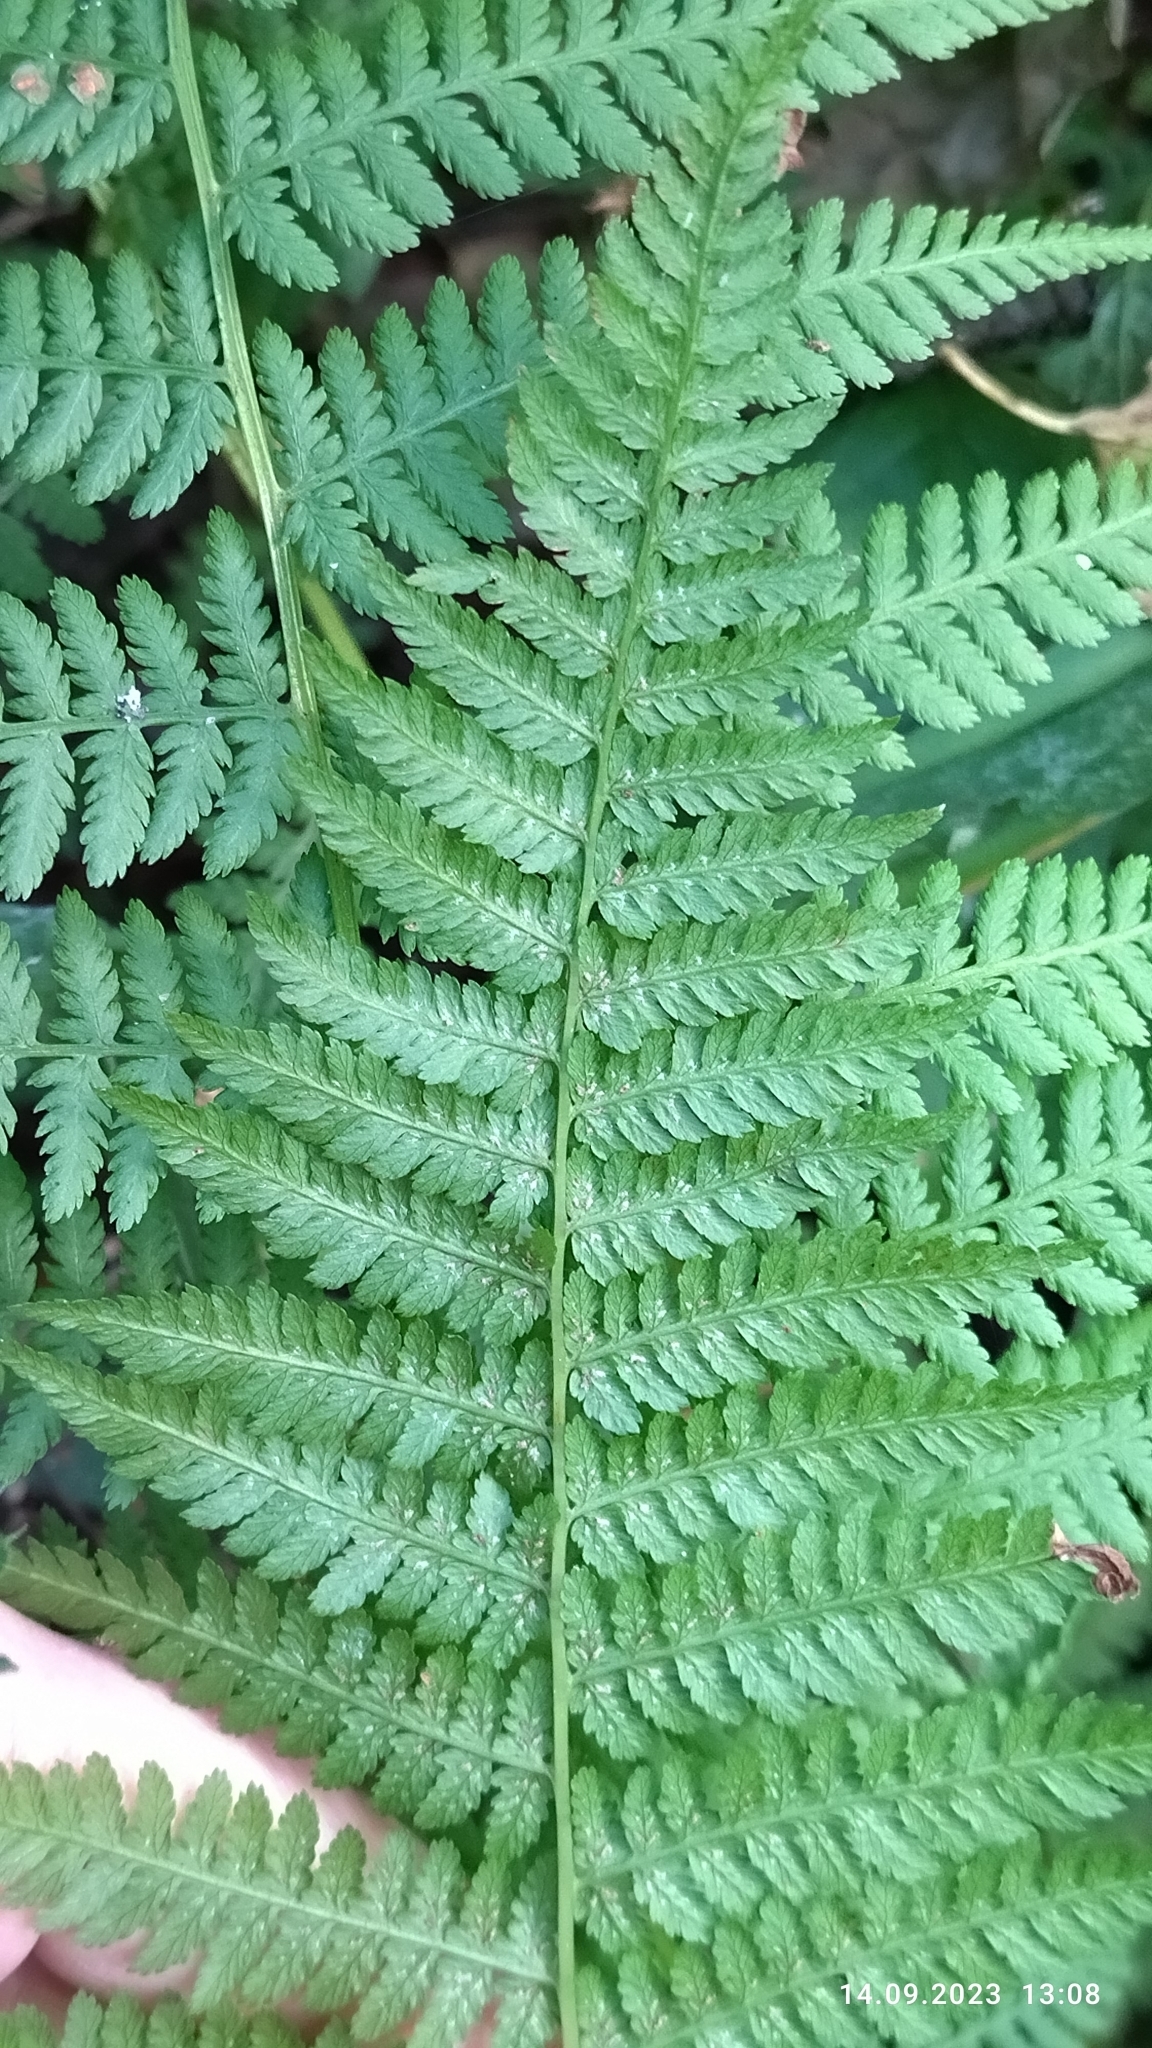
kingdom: Plantae
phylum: Tracheophyta
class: Polypodiopsida
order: Polypodiales
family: Athyriaceae
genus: Athyrium
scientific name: Athyrium filix-femina
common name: Lady fern
